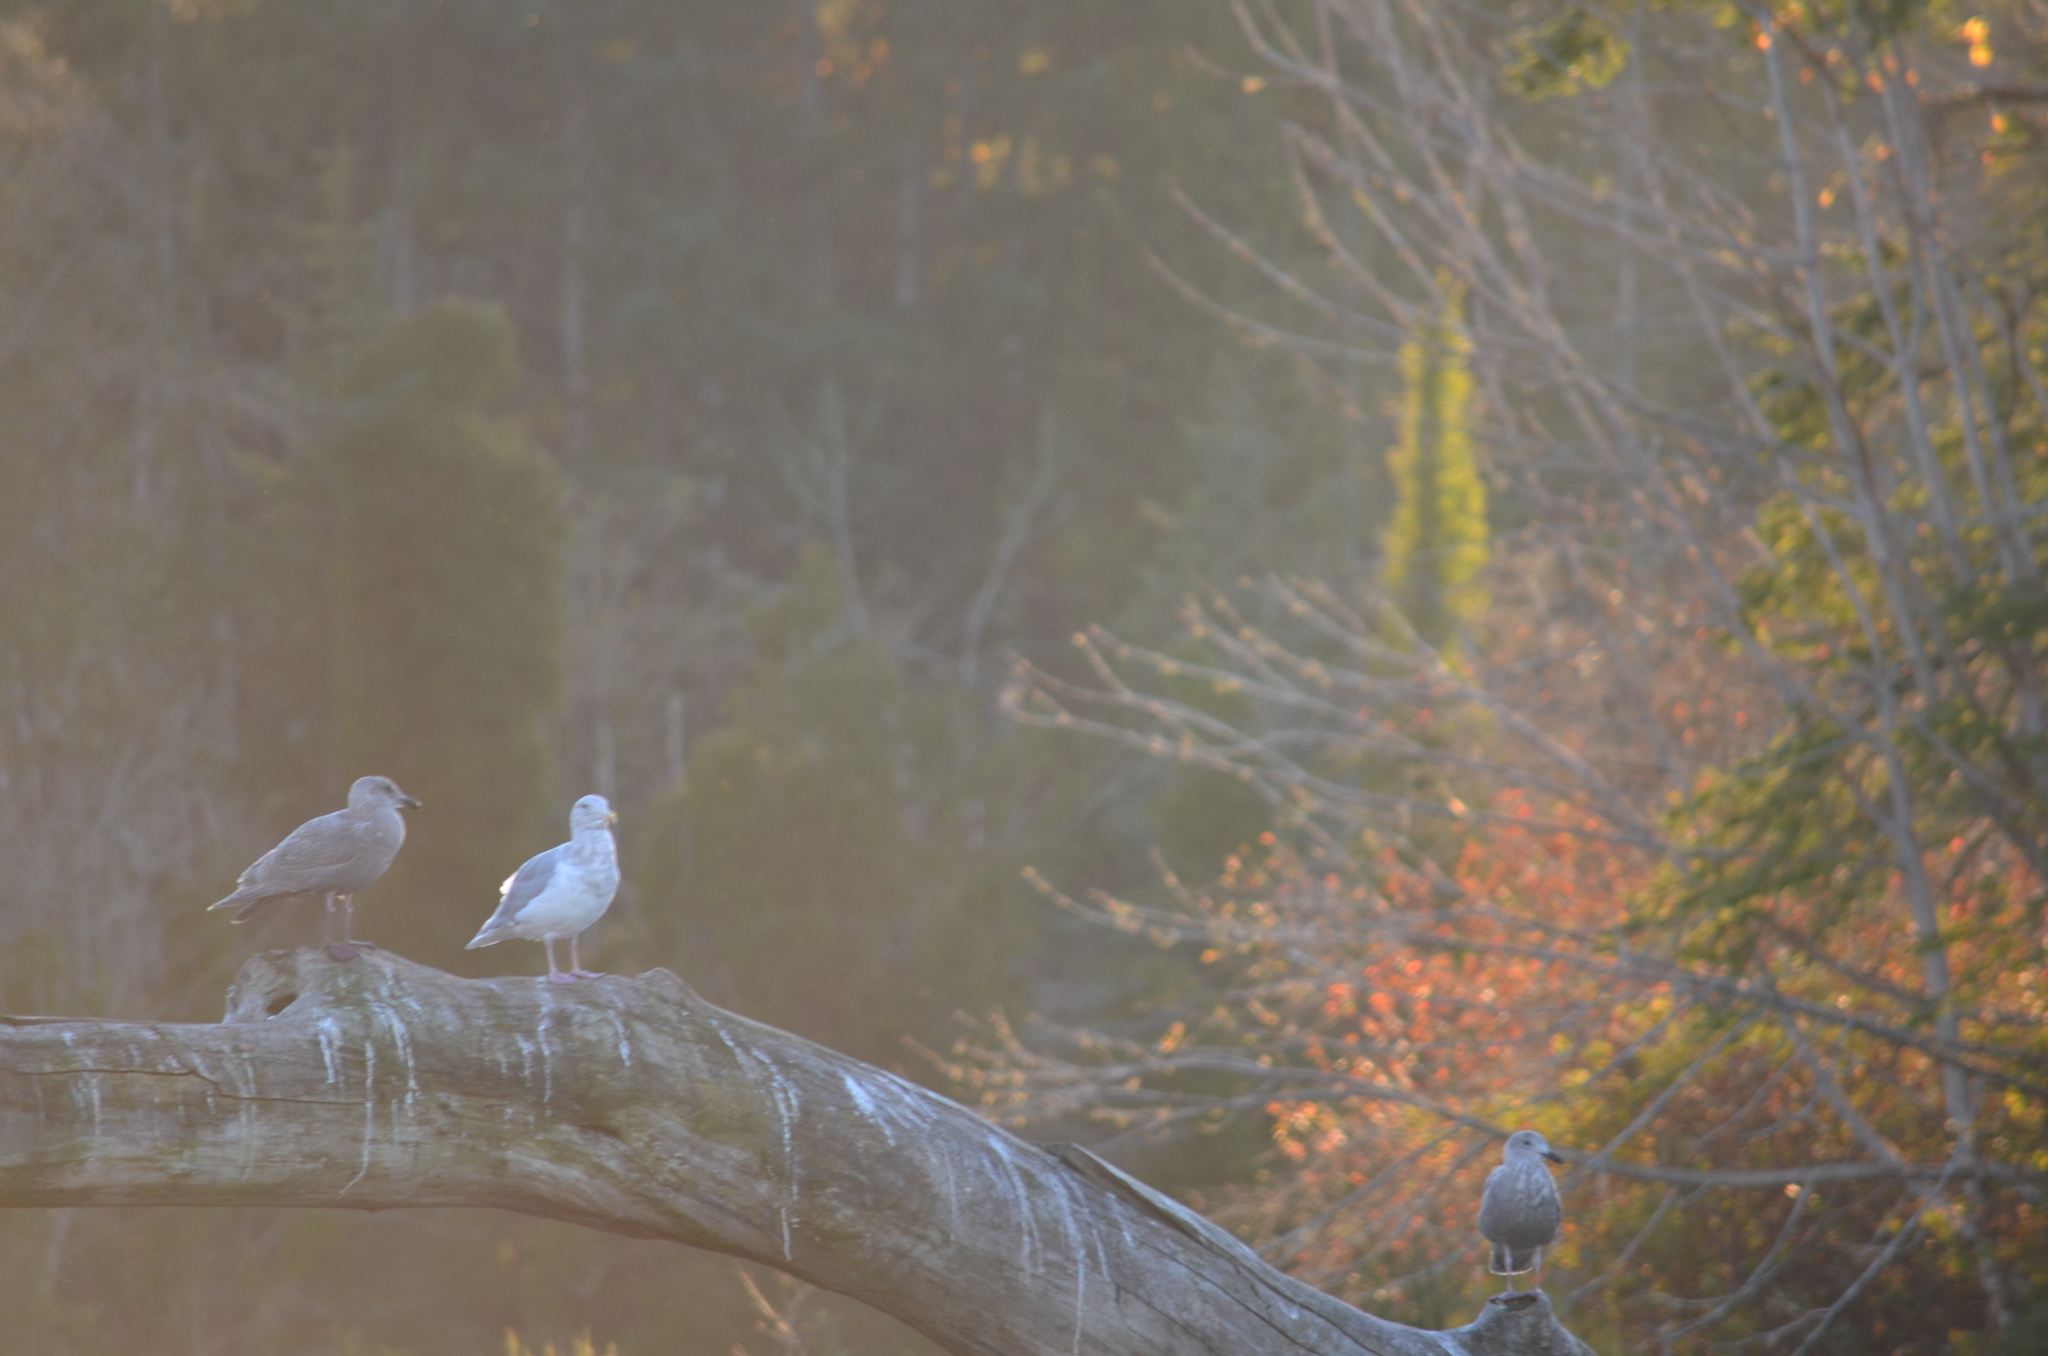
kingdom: Animalia
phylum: Chordata
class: Aves
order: Charadriiformes
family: Laridae
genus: Larus
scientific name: Larus glaucescens
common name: Glaucous-winged gull
